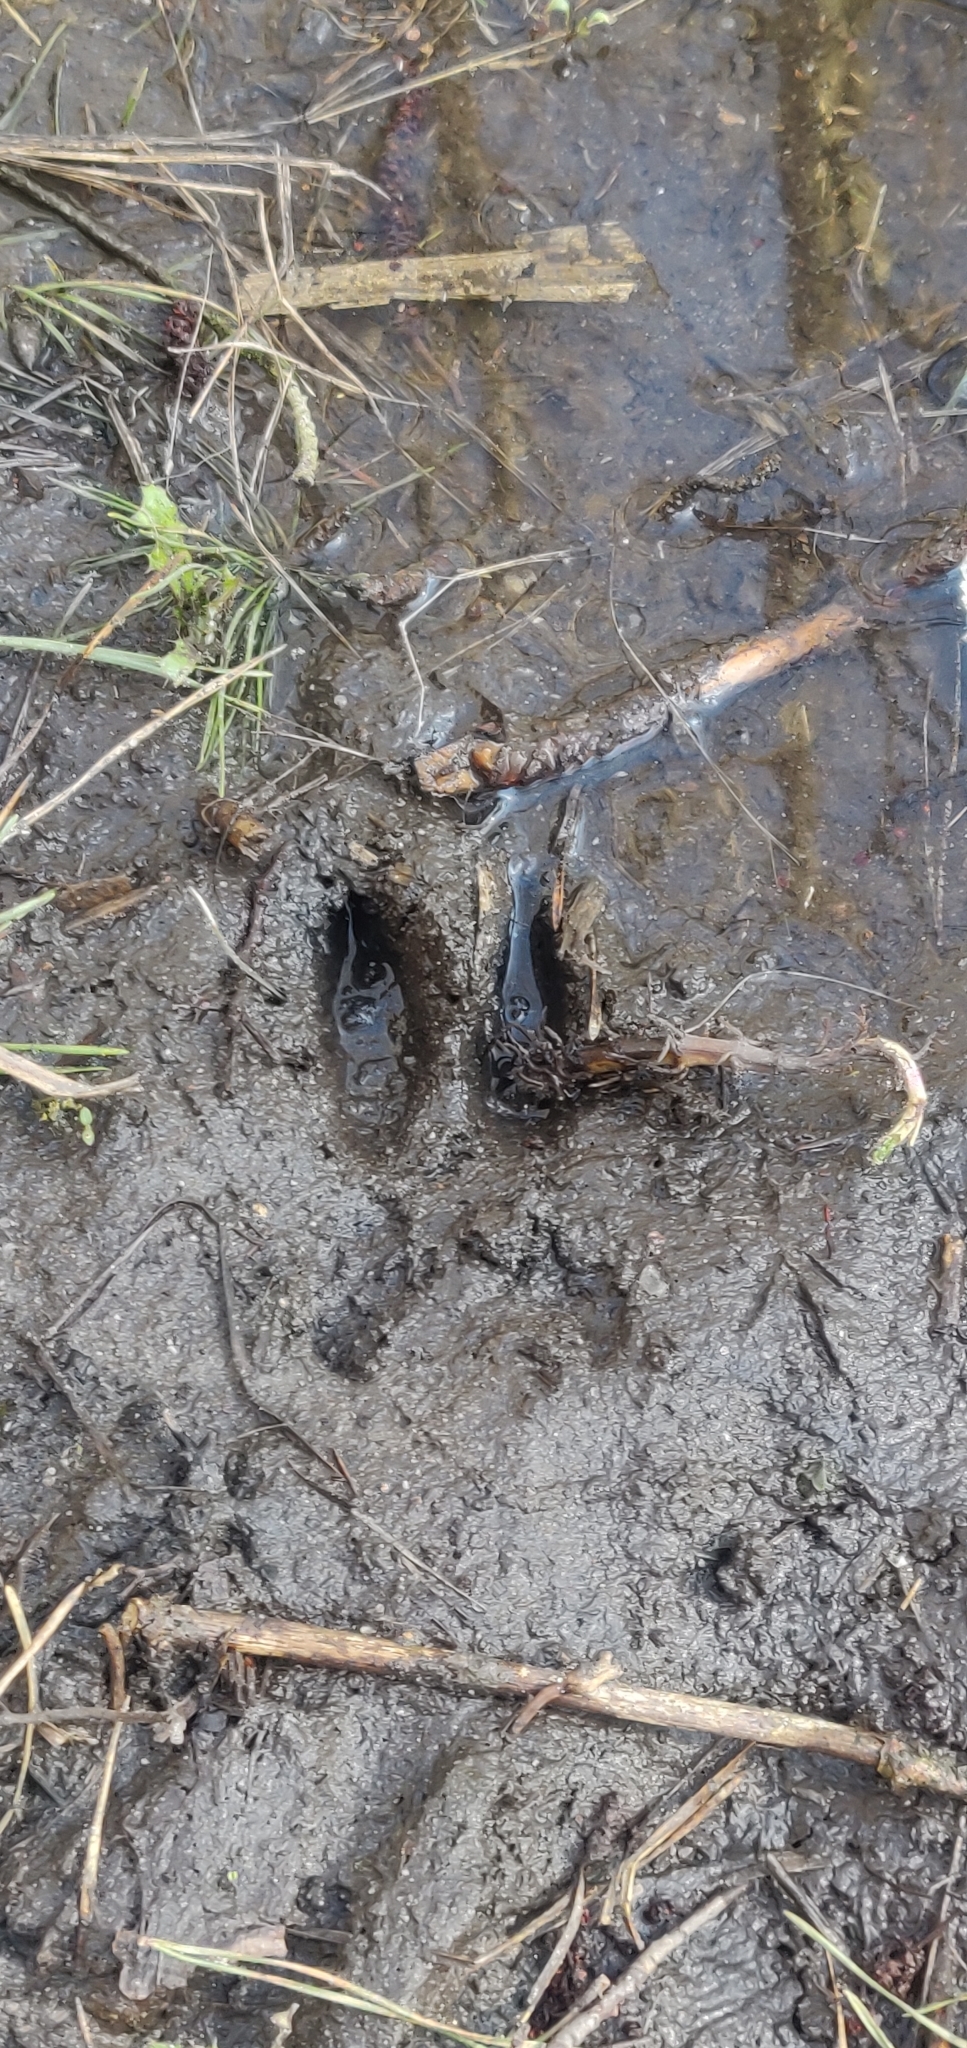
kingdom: Animalia
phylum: Chordata
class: Mammalia
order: Artiodactyla
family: Cervidae
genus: Capreolus
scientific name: Capreolus capreolus
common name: Western roe deer
